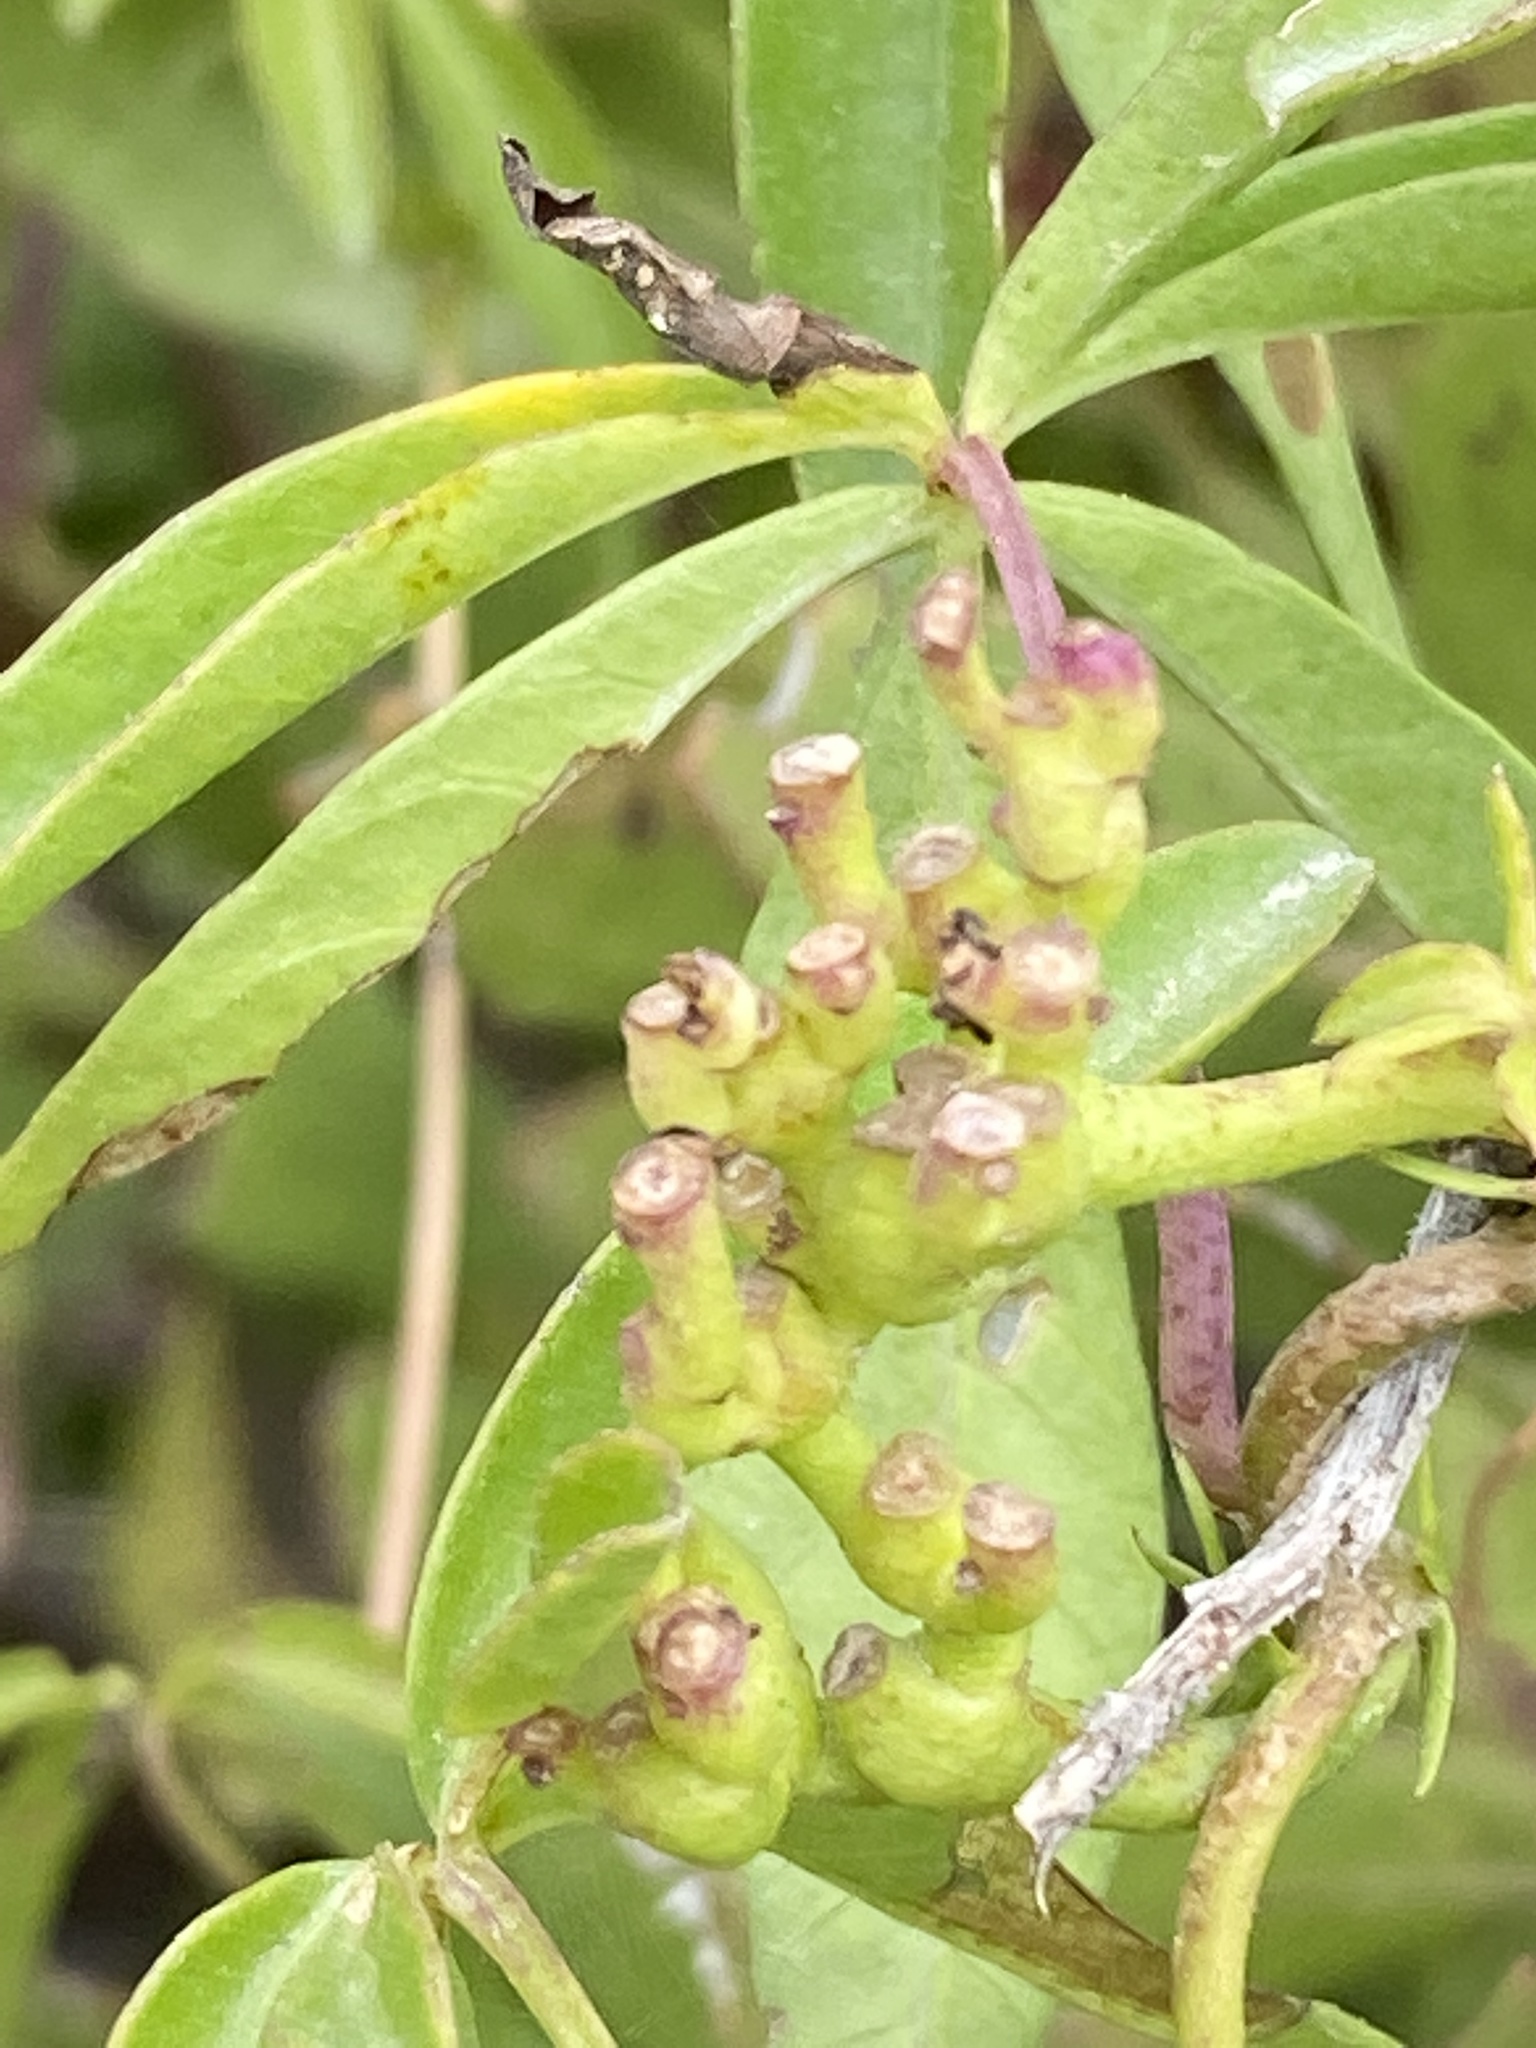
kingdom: Plantae
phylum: Tracheophyta
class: Magnoliopsida
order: Solanales
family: Convolvulaceae
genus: Ipomoea
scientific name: Ipomoea cairica
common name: Mile a minute vine
